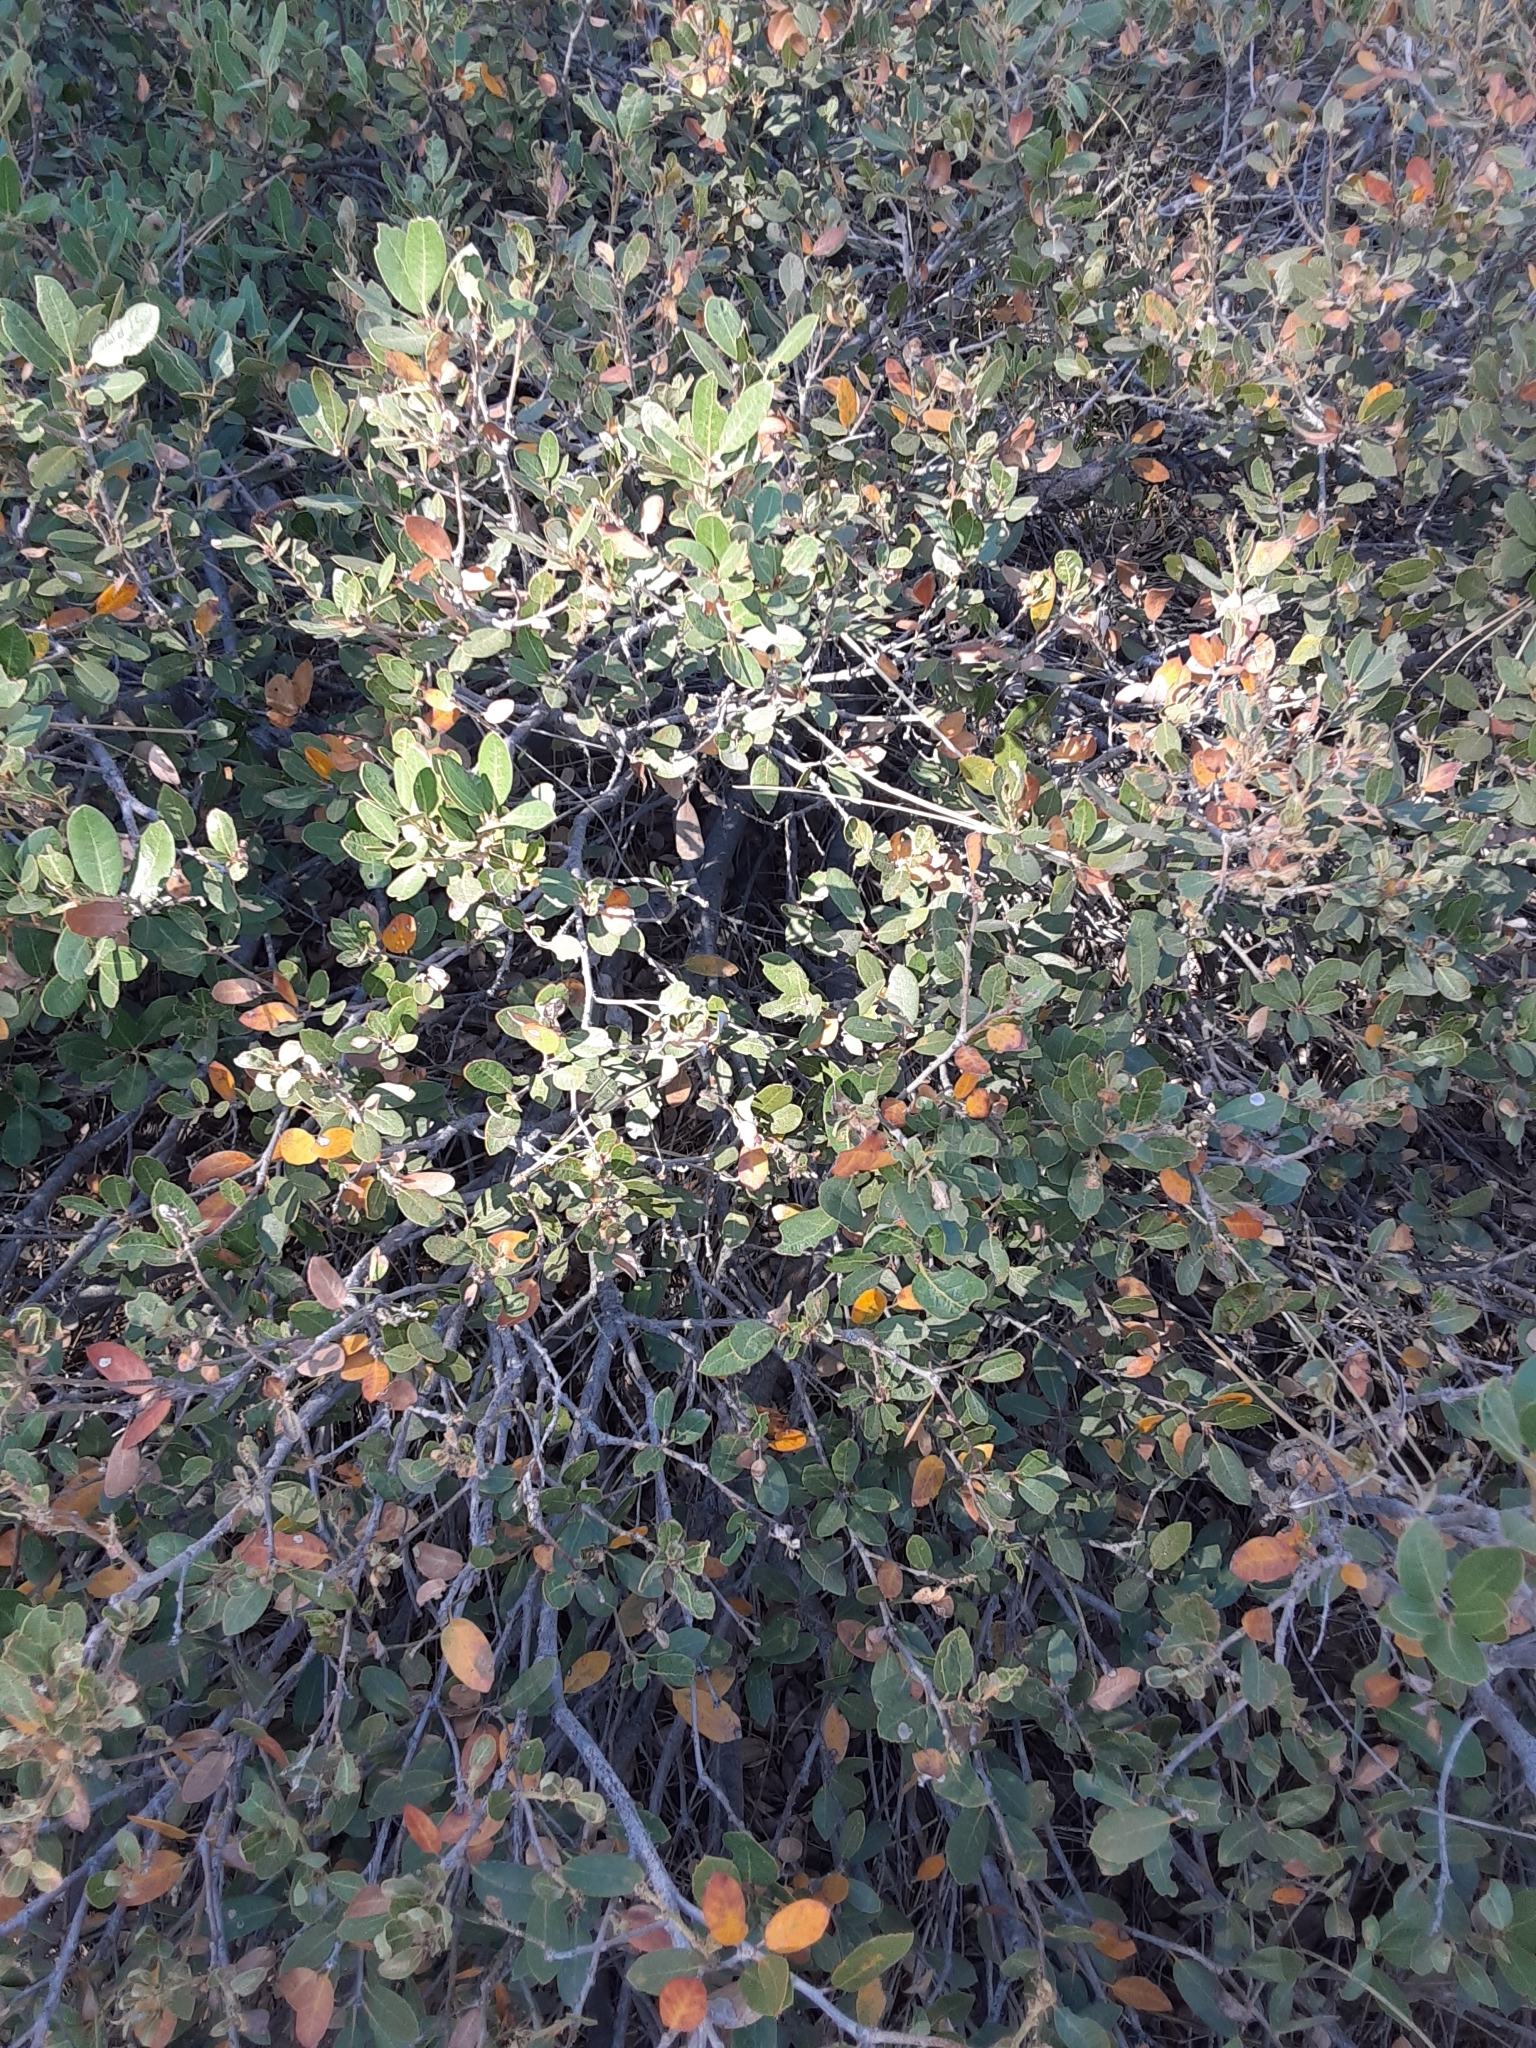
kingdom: Plantae
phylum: Tracheophyta
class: Magnoliopsida
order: Fagales
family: Fagaceae
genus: Quercus
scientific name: Quercus vacciniifolia
